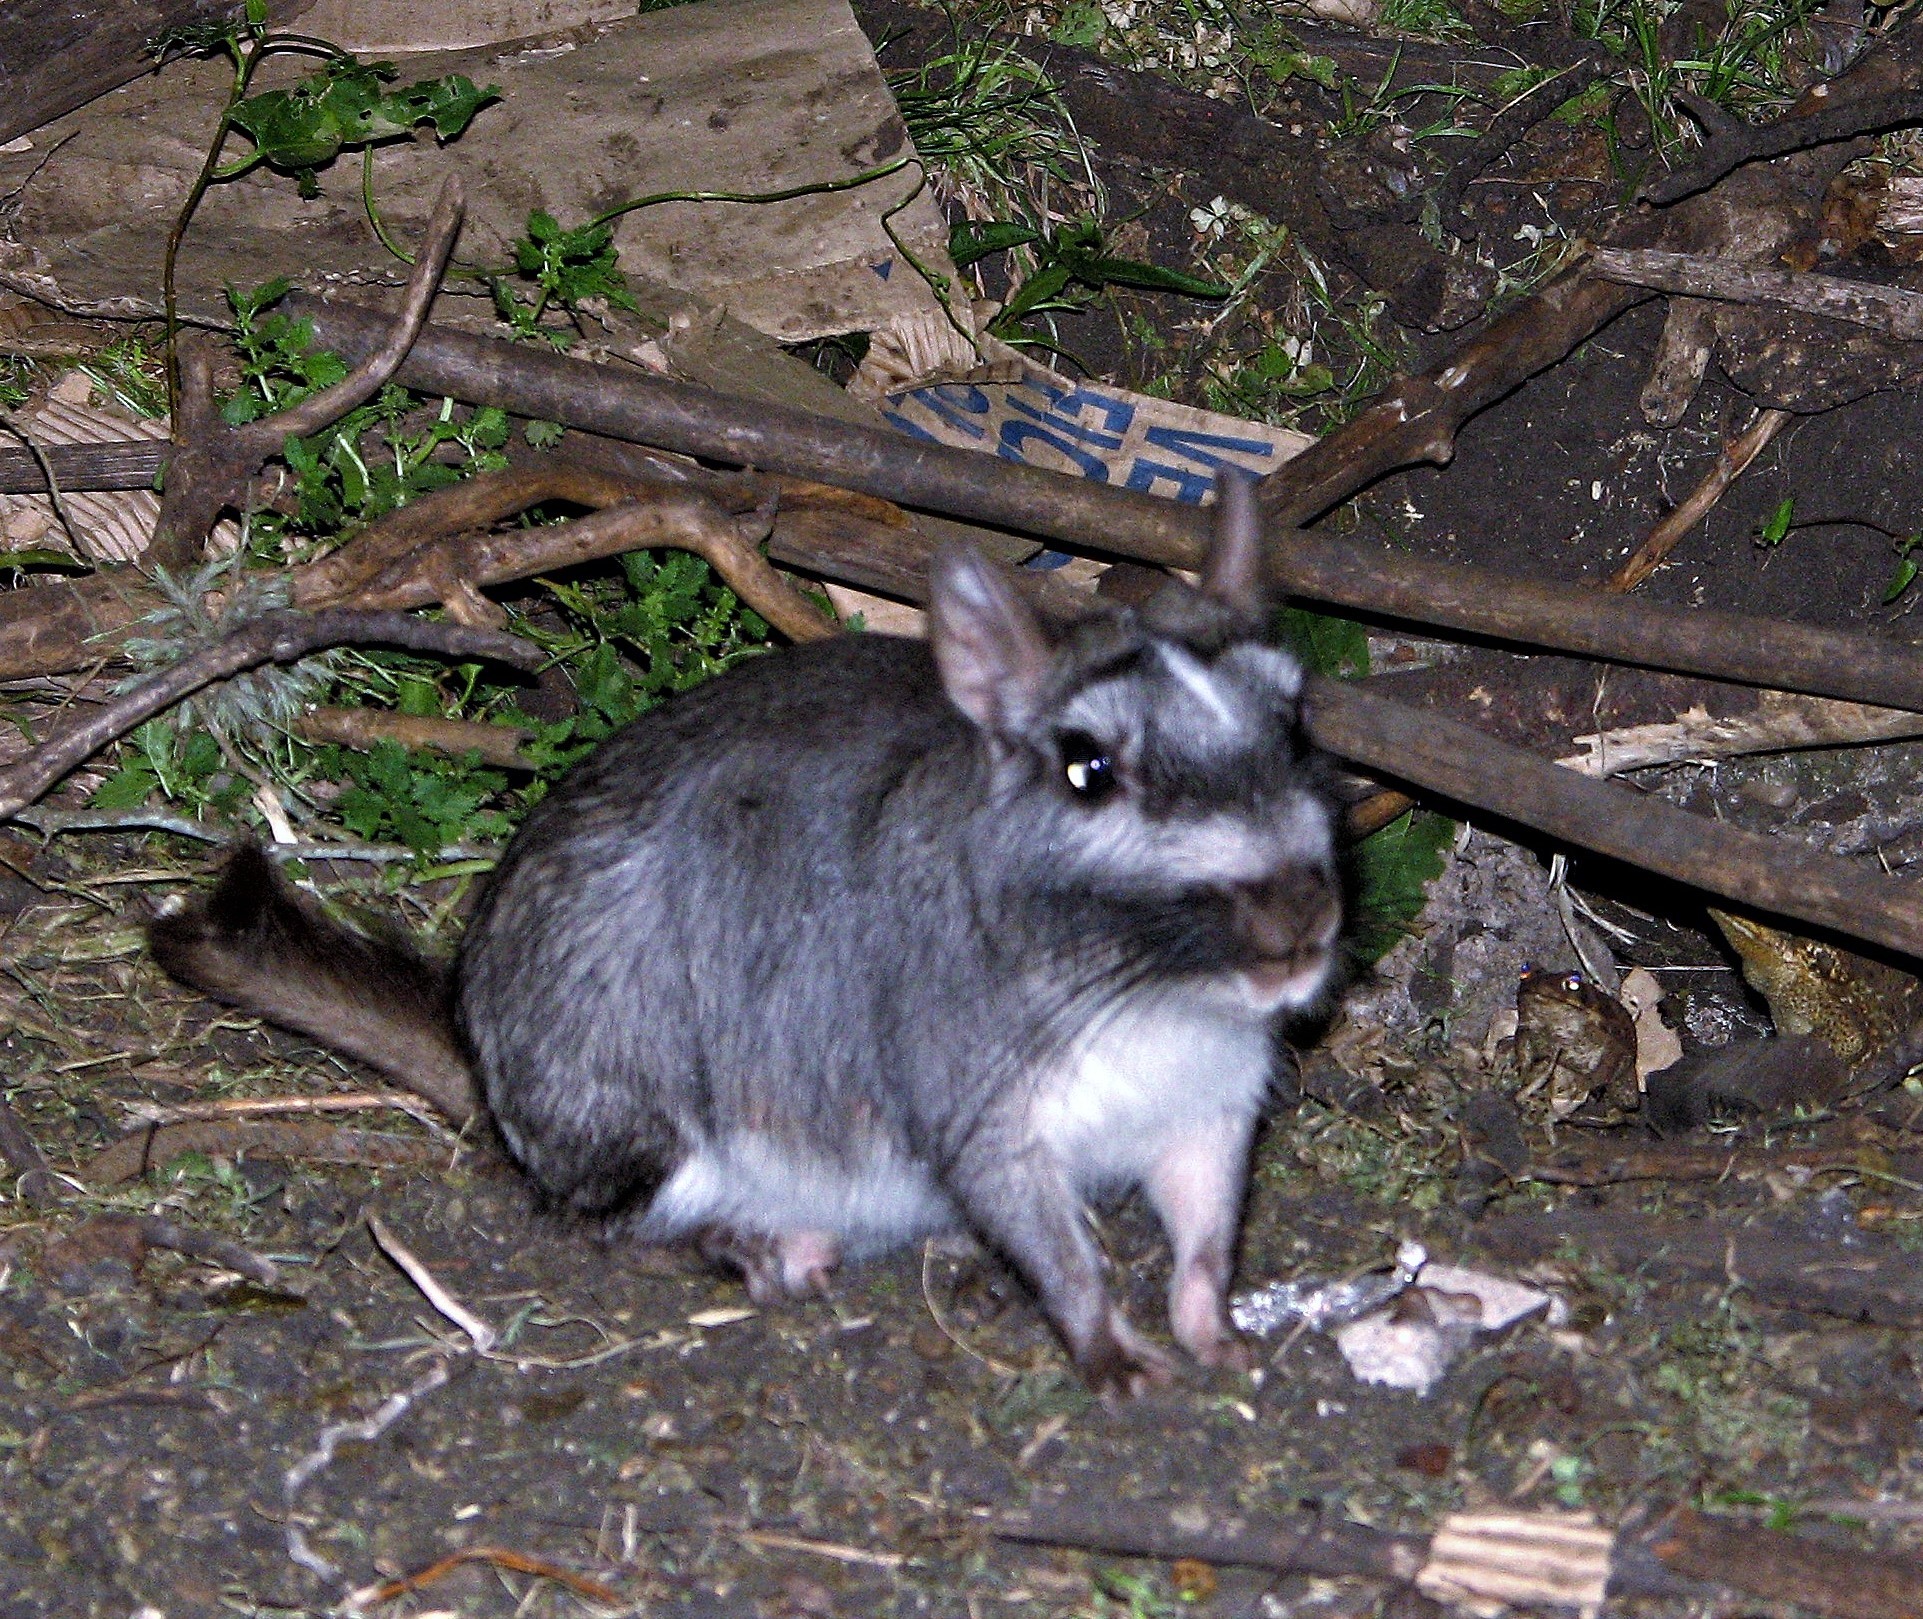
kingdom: Animalia
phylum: Chordata
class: Mammalia
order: Rodentia
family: Chinchillidae
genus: Lagostomus
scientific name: Lagostomus maximus
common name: Plains viscacha
